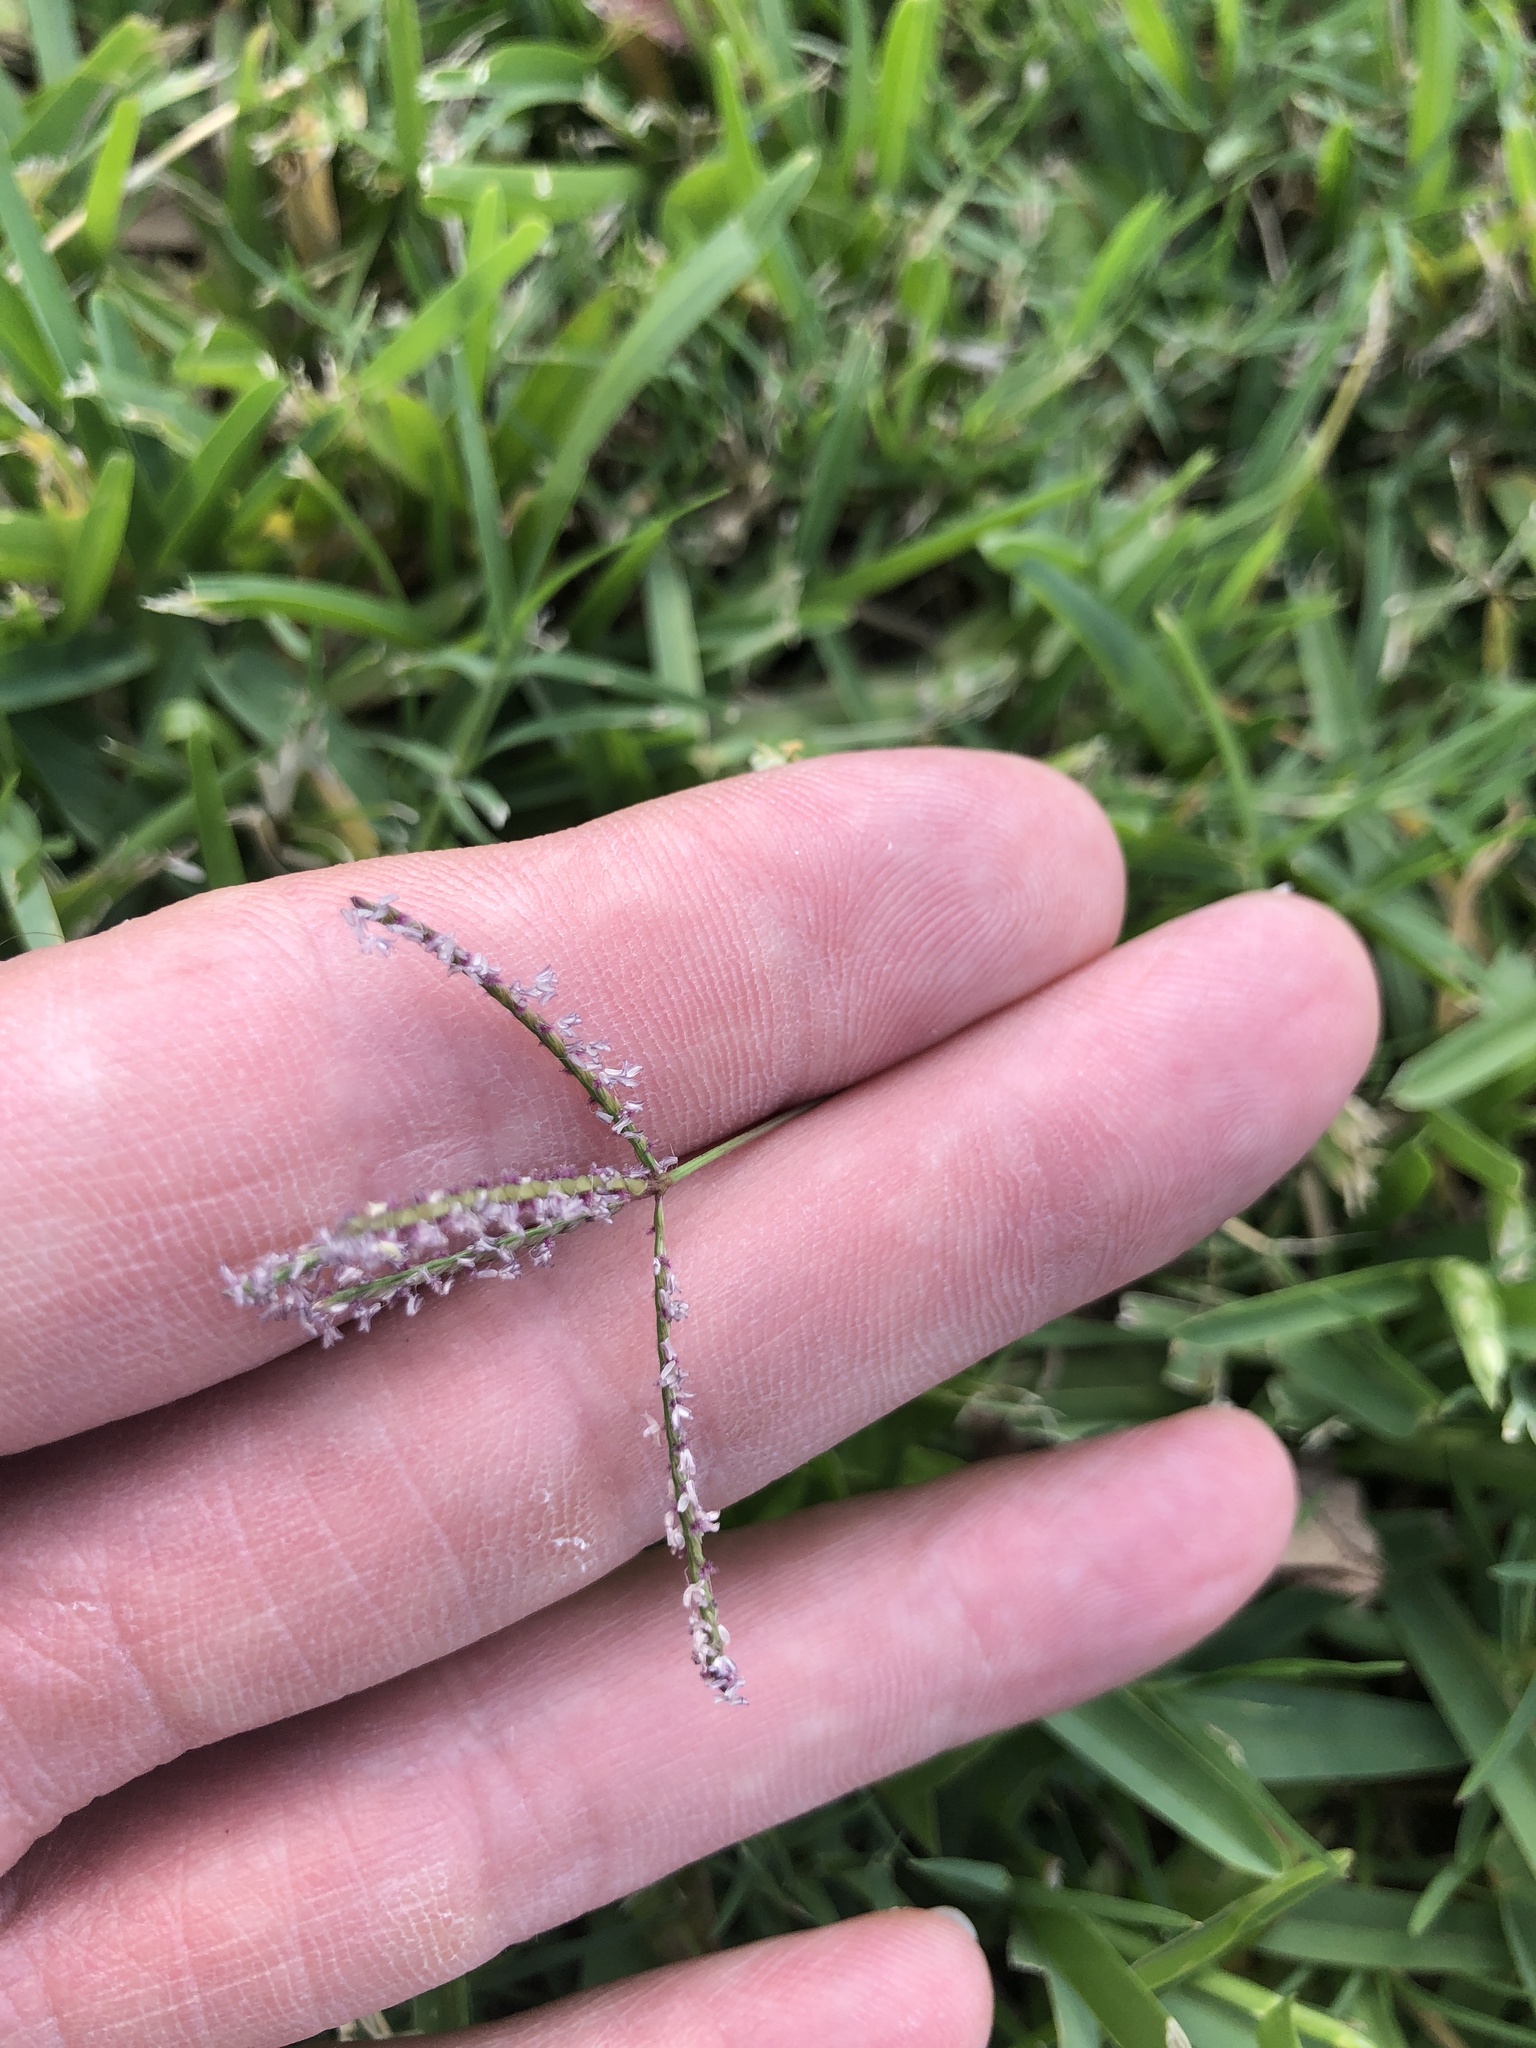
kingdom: Plantae
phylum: Tracheophyta
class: Liliopsida
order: Poales
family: Poaceae
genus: Cynodon
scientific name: Cynodon dactylon
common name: Bermuda grass
